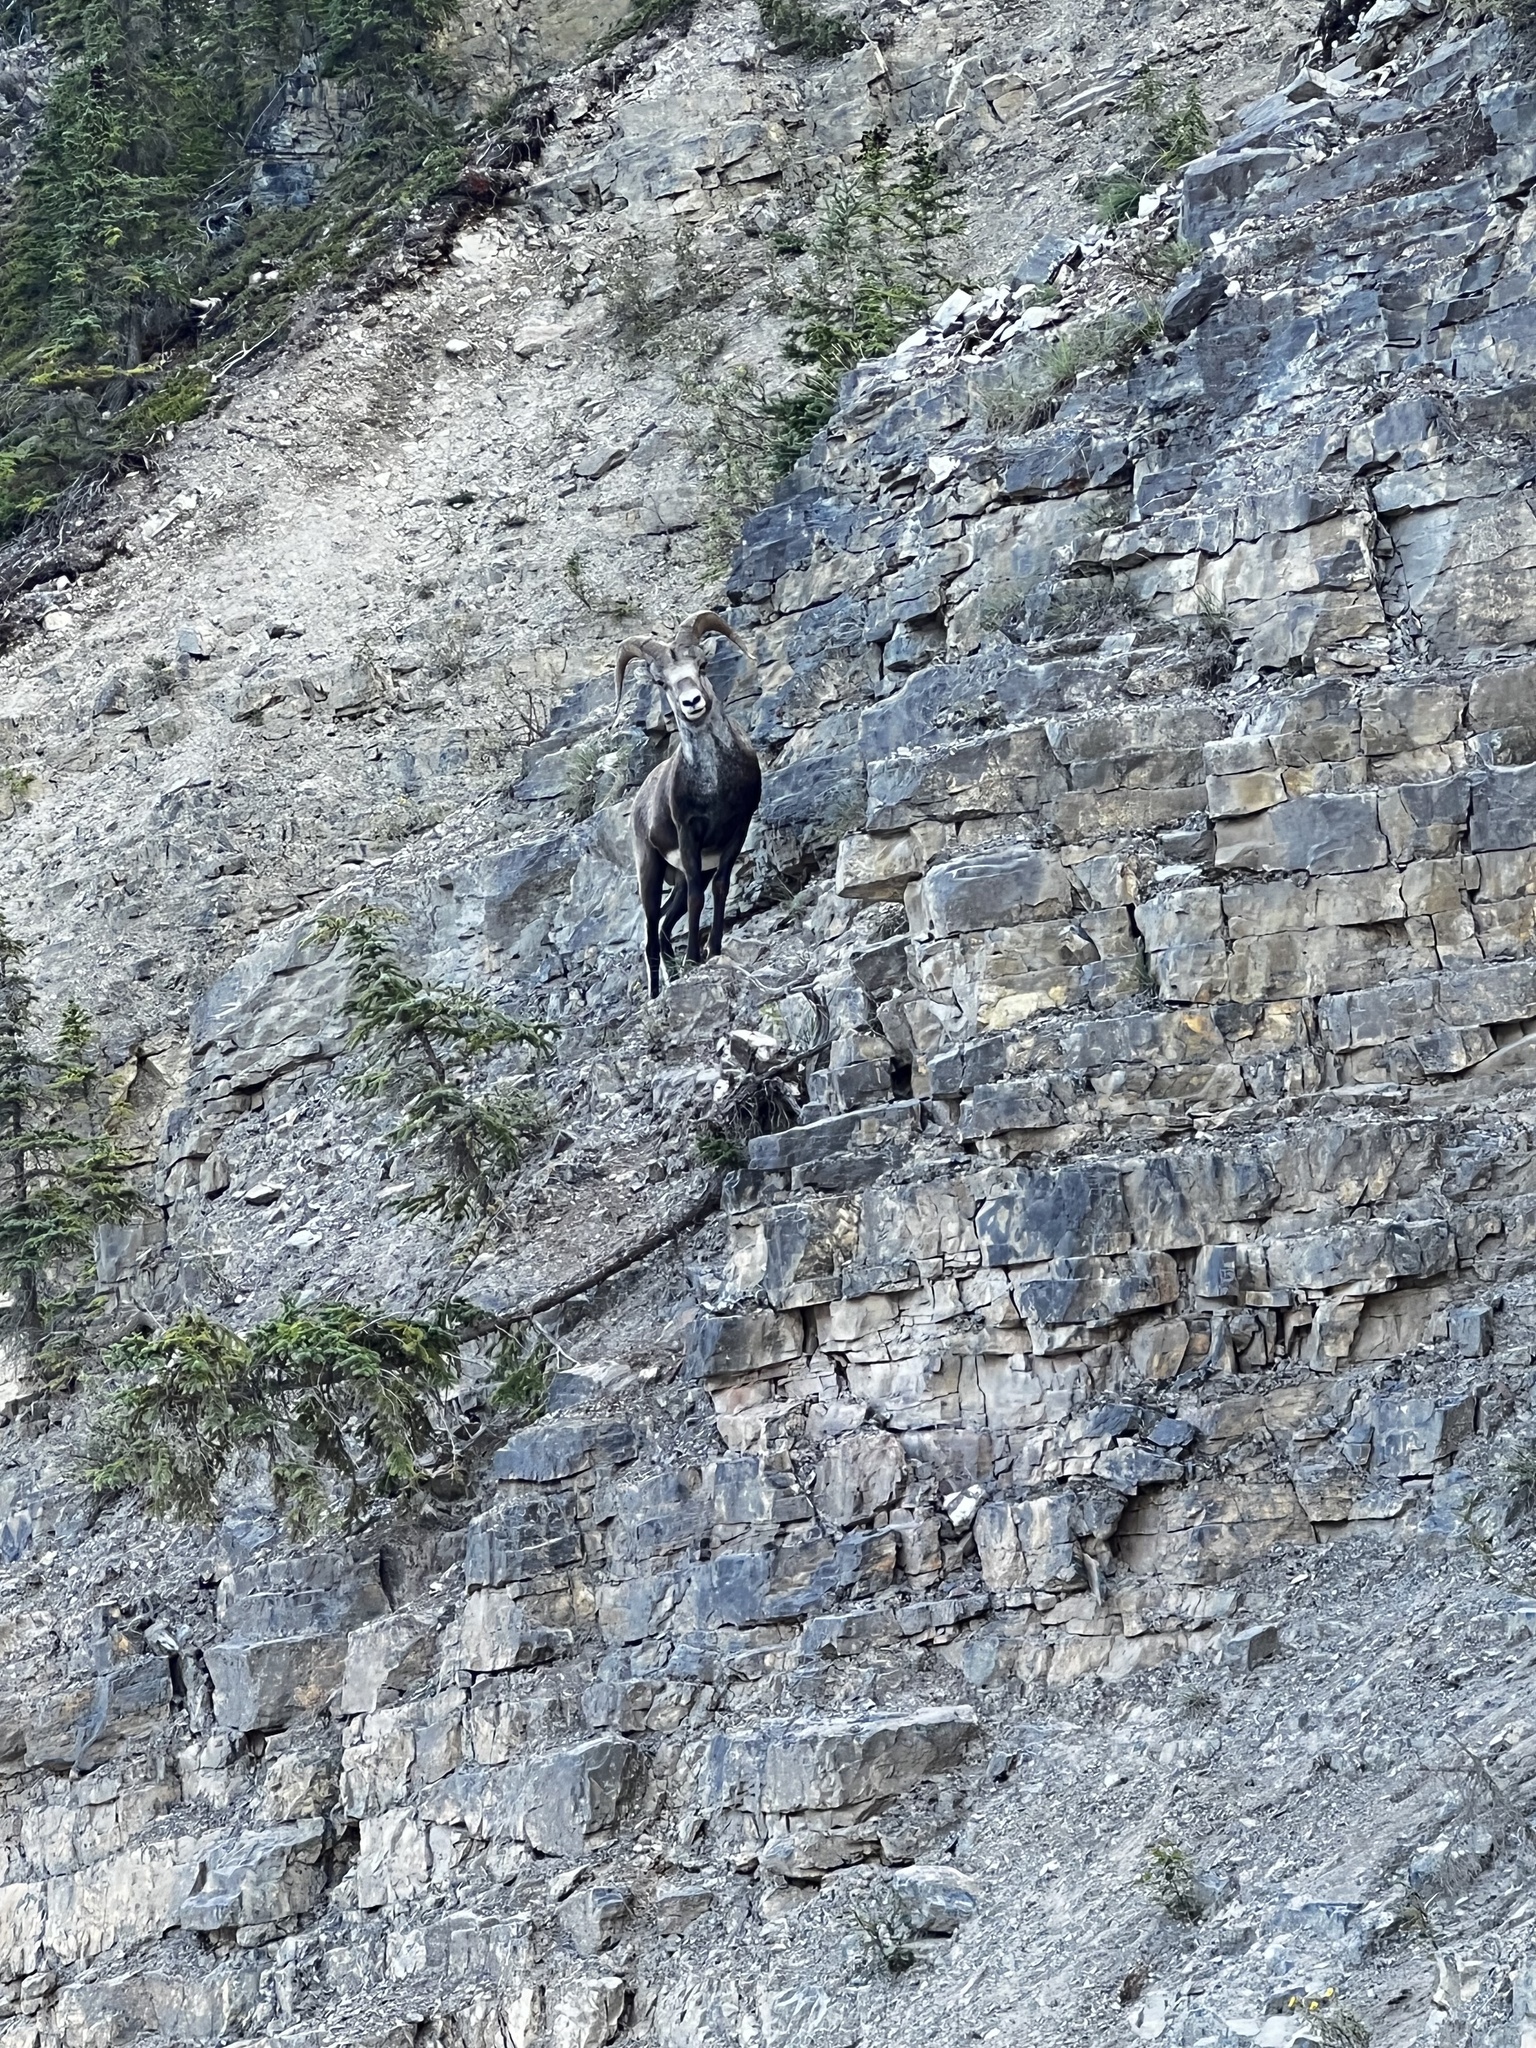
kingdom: Animalia
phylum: Chordata
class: Mammalia
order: Artiodactyla
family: Bovidae
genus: Ovis
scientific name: Ovis dalli
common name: Dall's sheep
